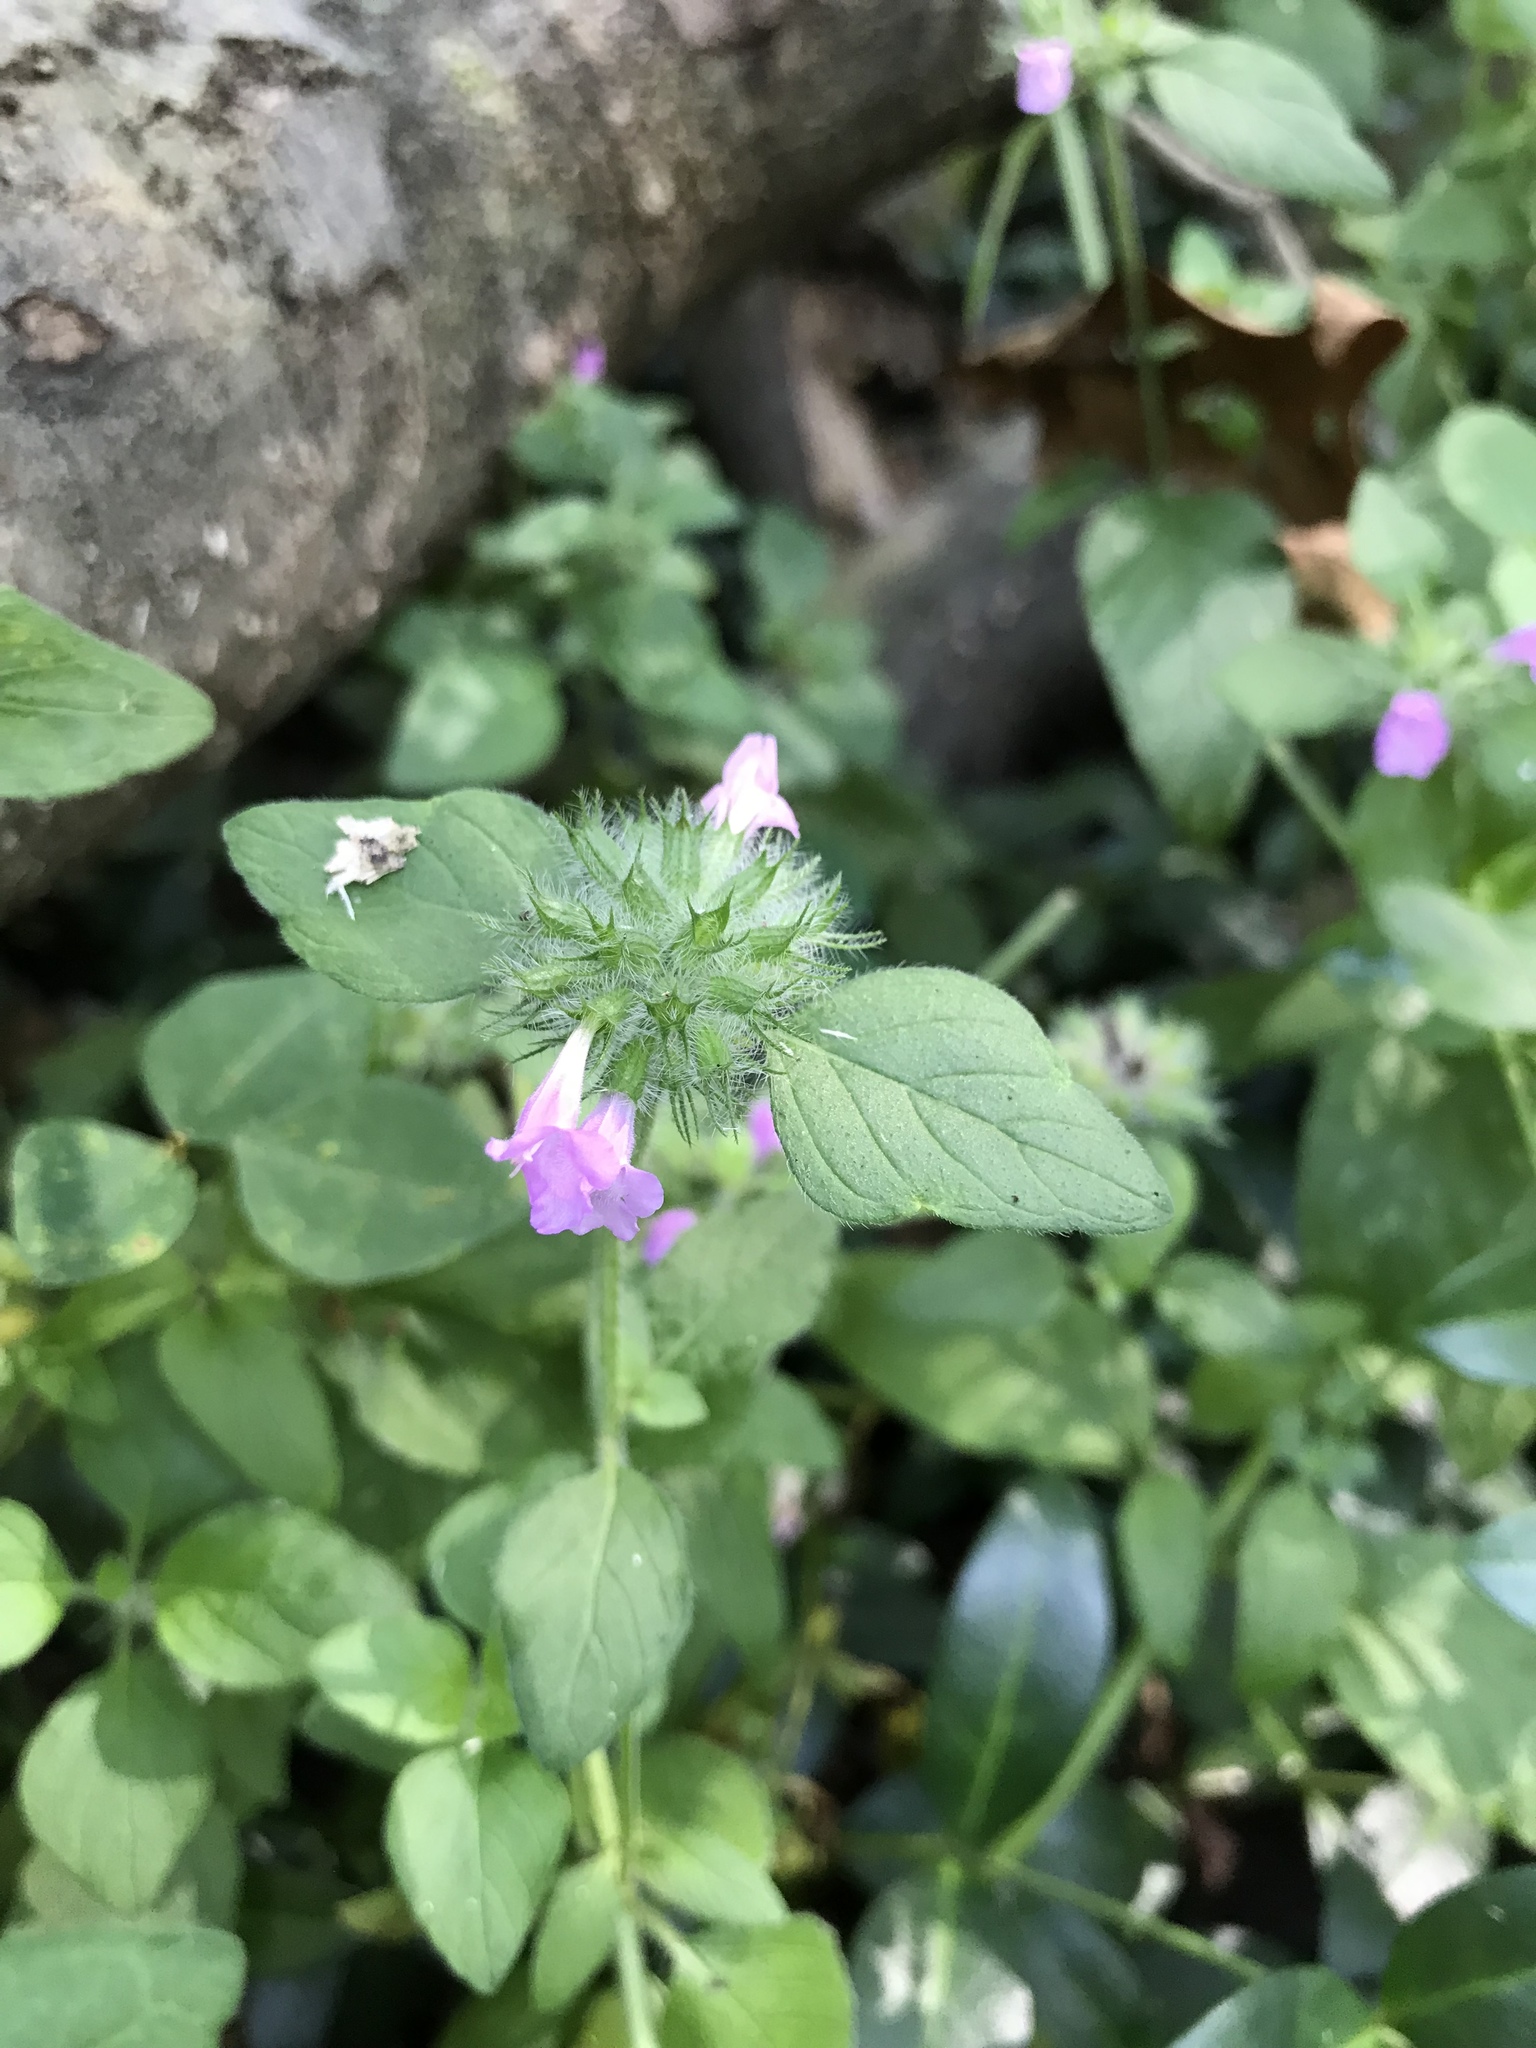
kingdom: Plantae
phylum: Tracheophyta
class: Magnoliopsida
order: Lamiales
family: Lamiaceae
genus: Clinopodium
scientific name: Clinopodium vulgare
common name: Wild basil
